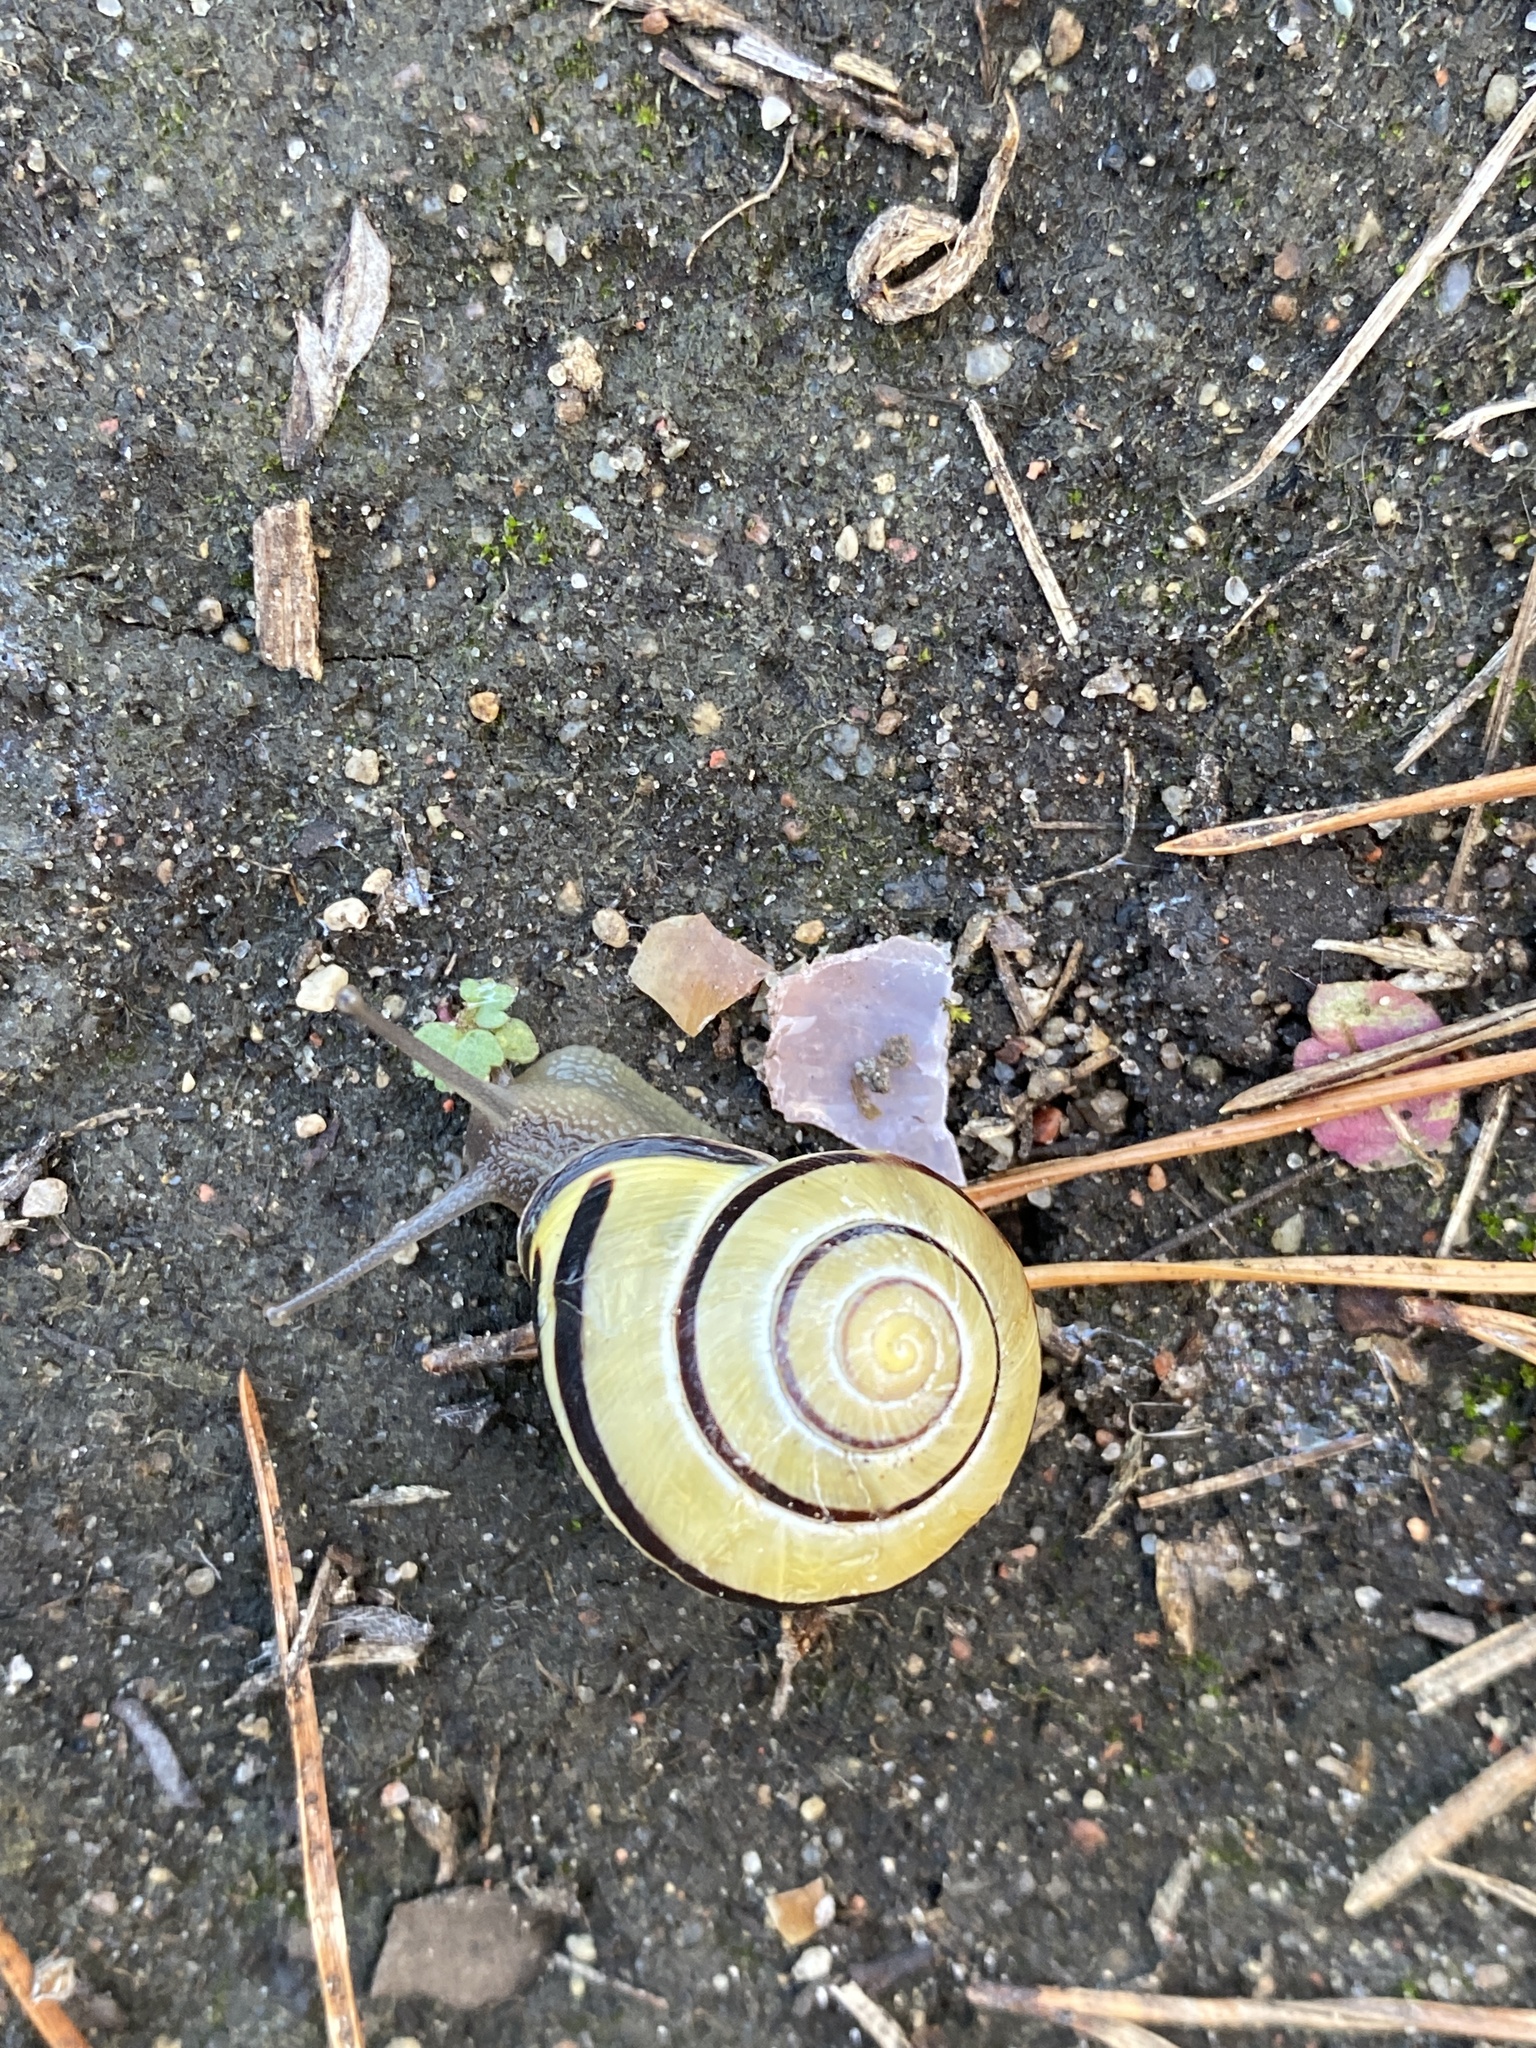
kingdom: Animalia
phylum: Mollusca
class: Gastropoda
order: Stylommatophora
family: Helicidae
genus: Cepaea
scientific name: Cepaea nemoralis
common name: Grovesnail
